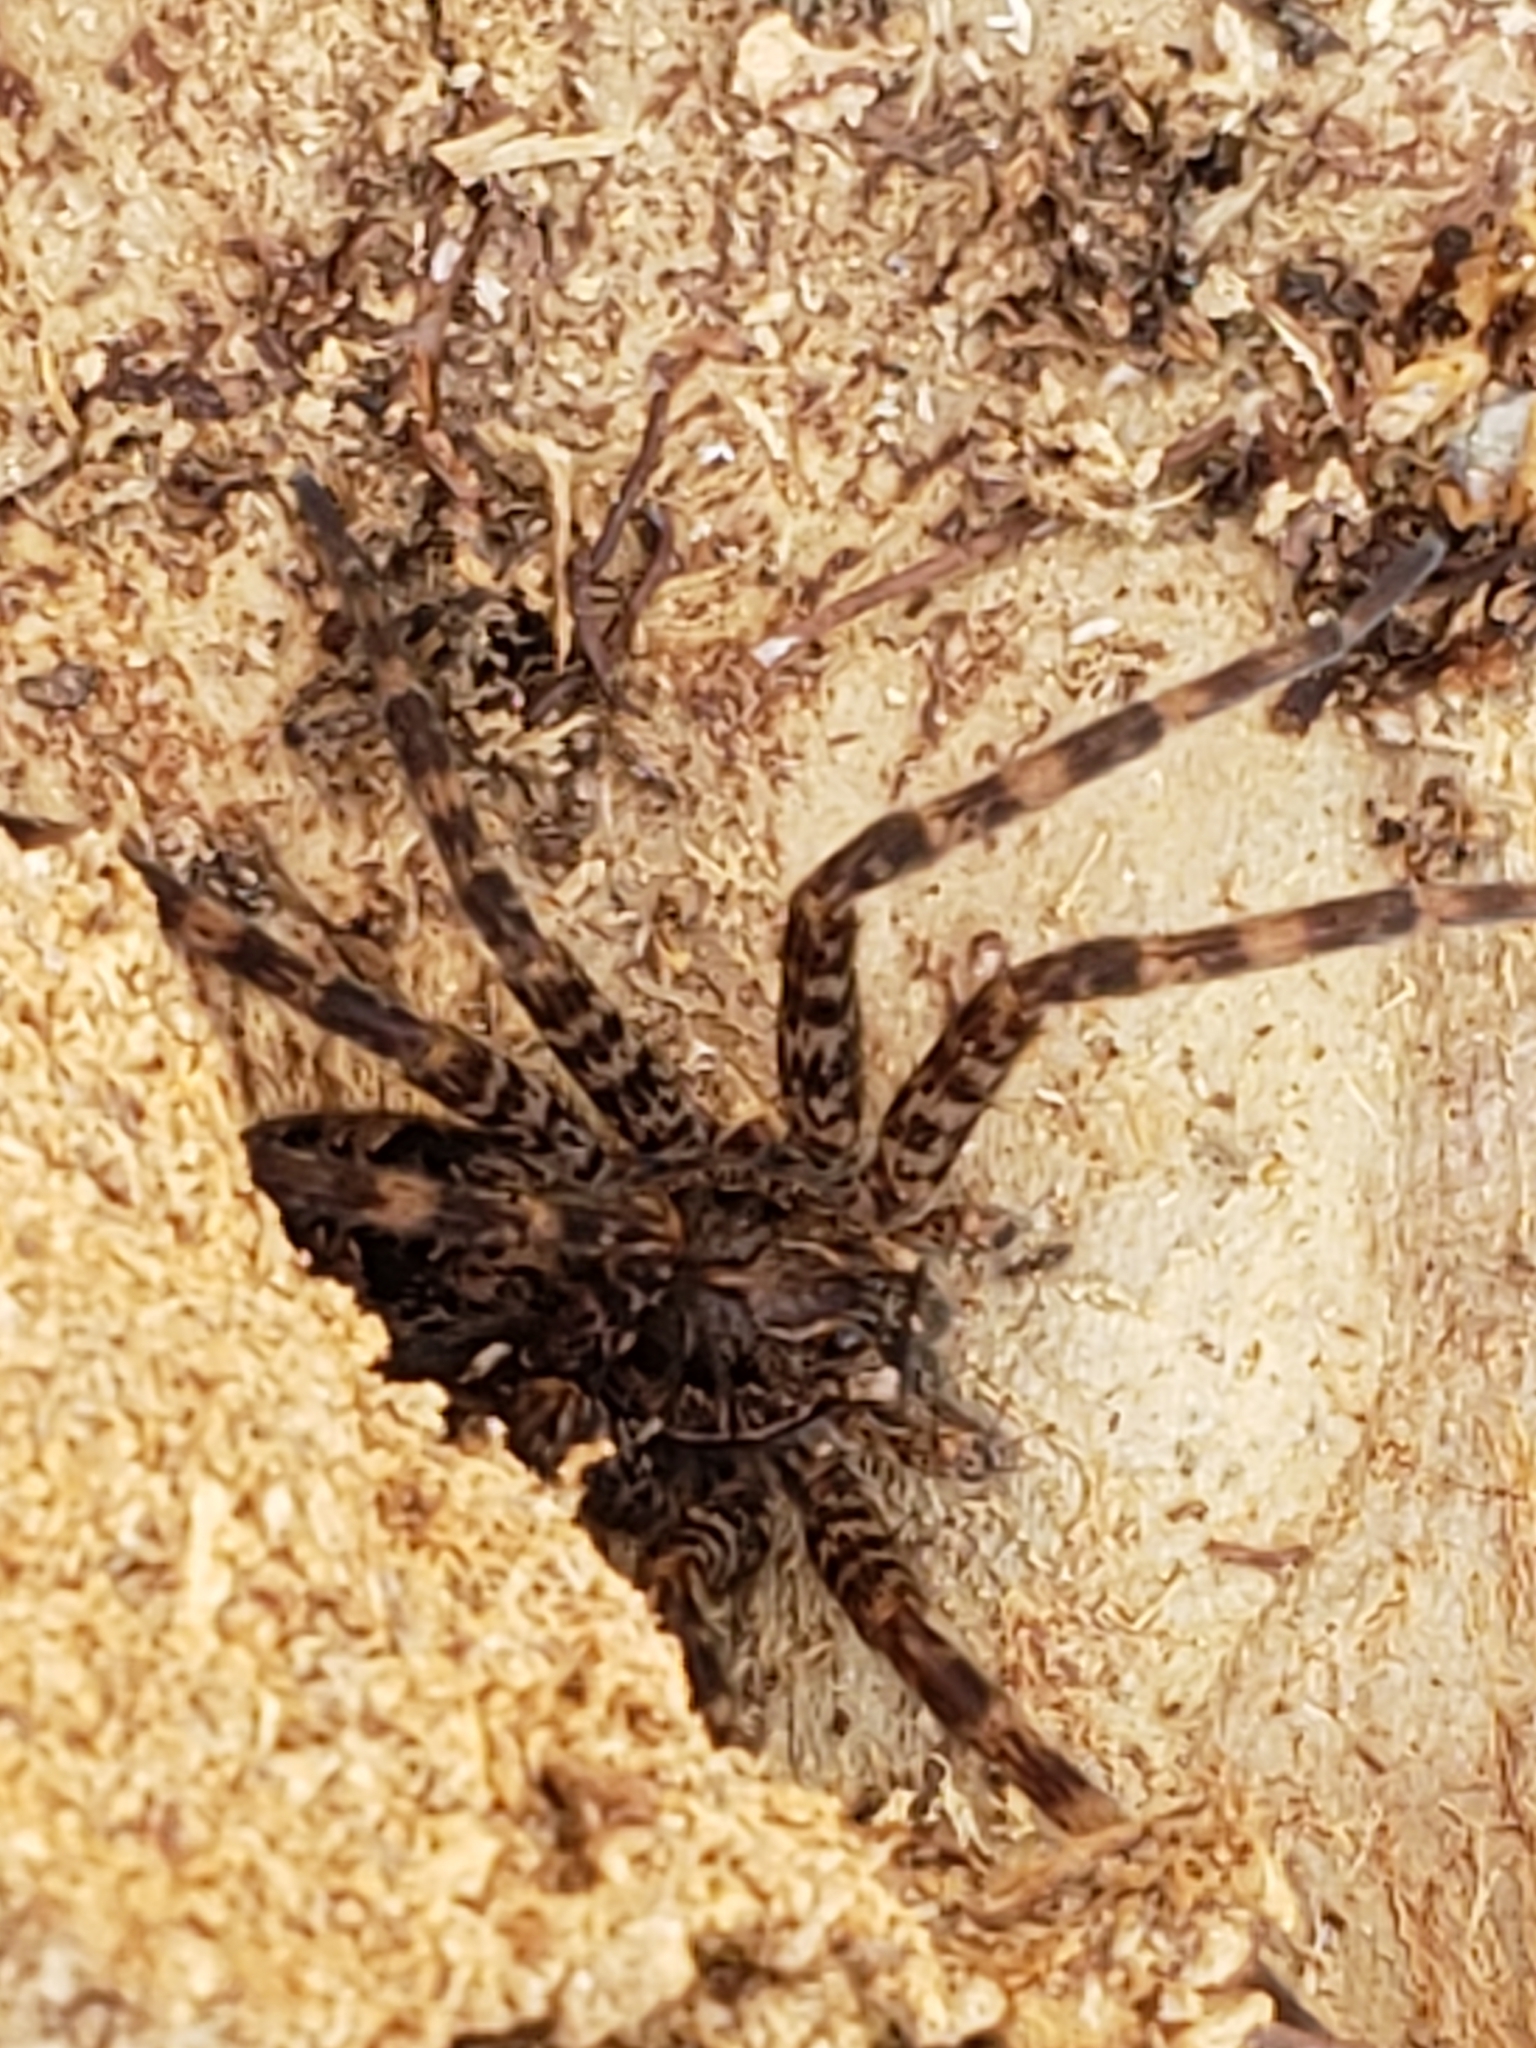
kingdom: Animalia
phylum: Arthropoda
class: Arachnida
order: Araneae
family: Pisauridae
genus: Dolomedes
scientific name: Dolomedes tenebrosus
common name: Dark fishing spider
